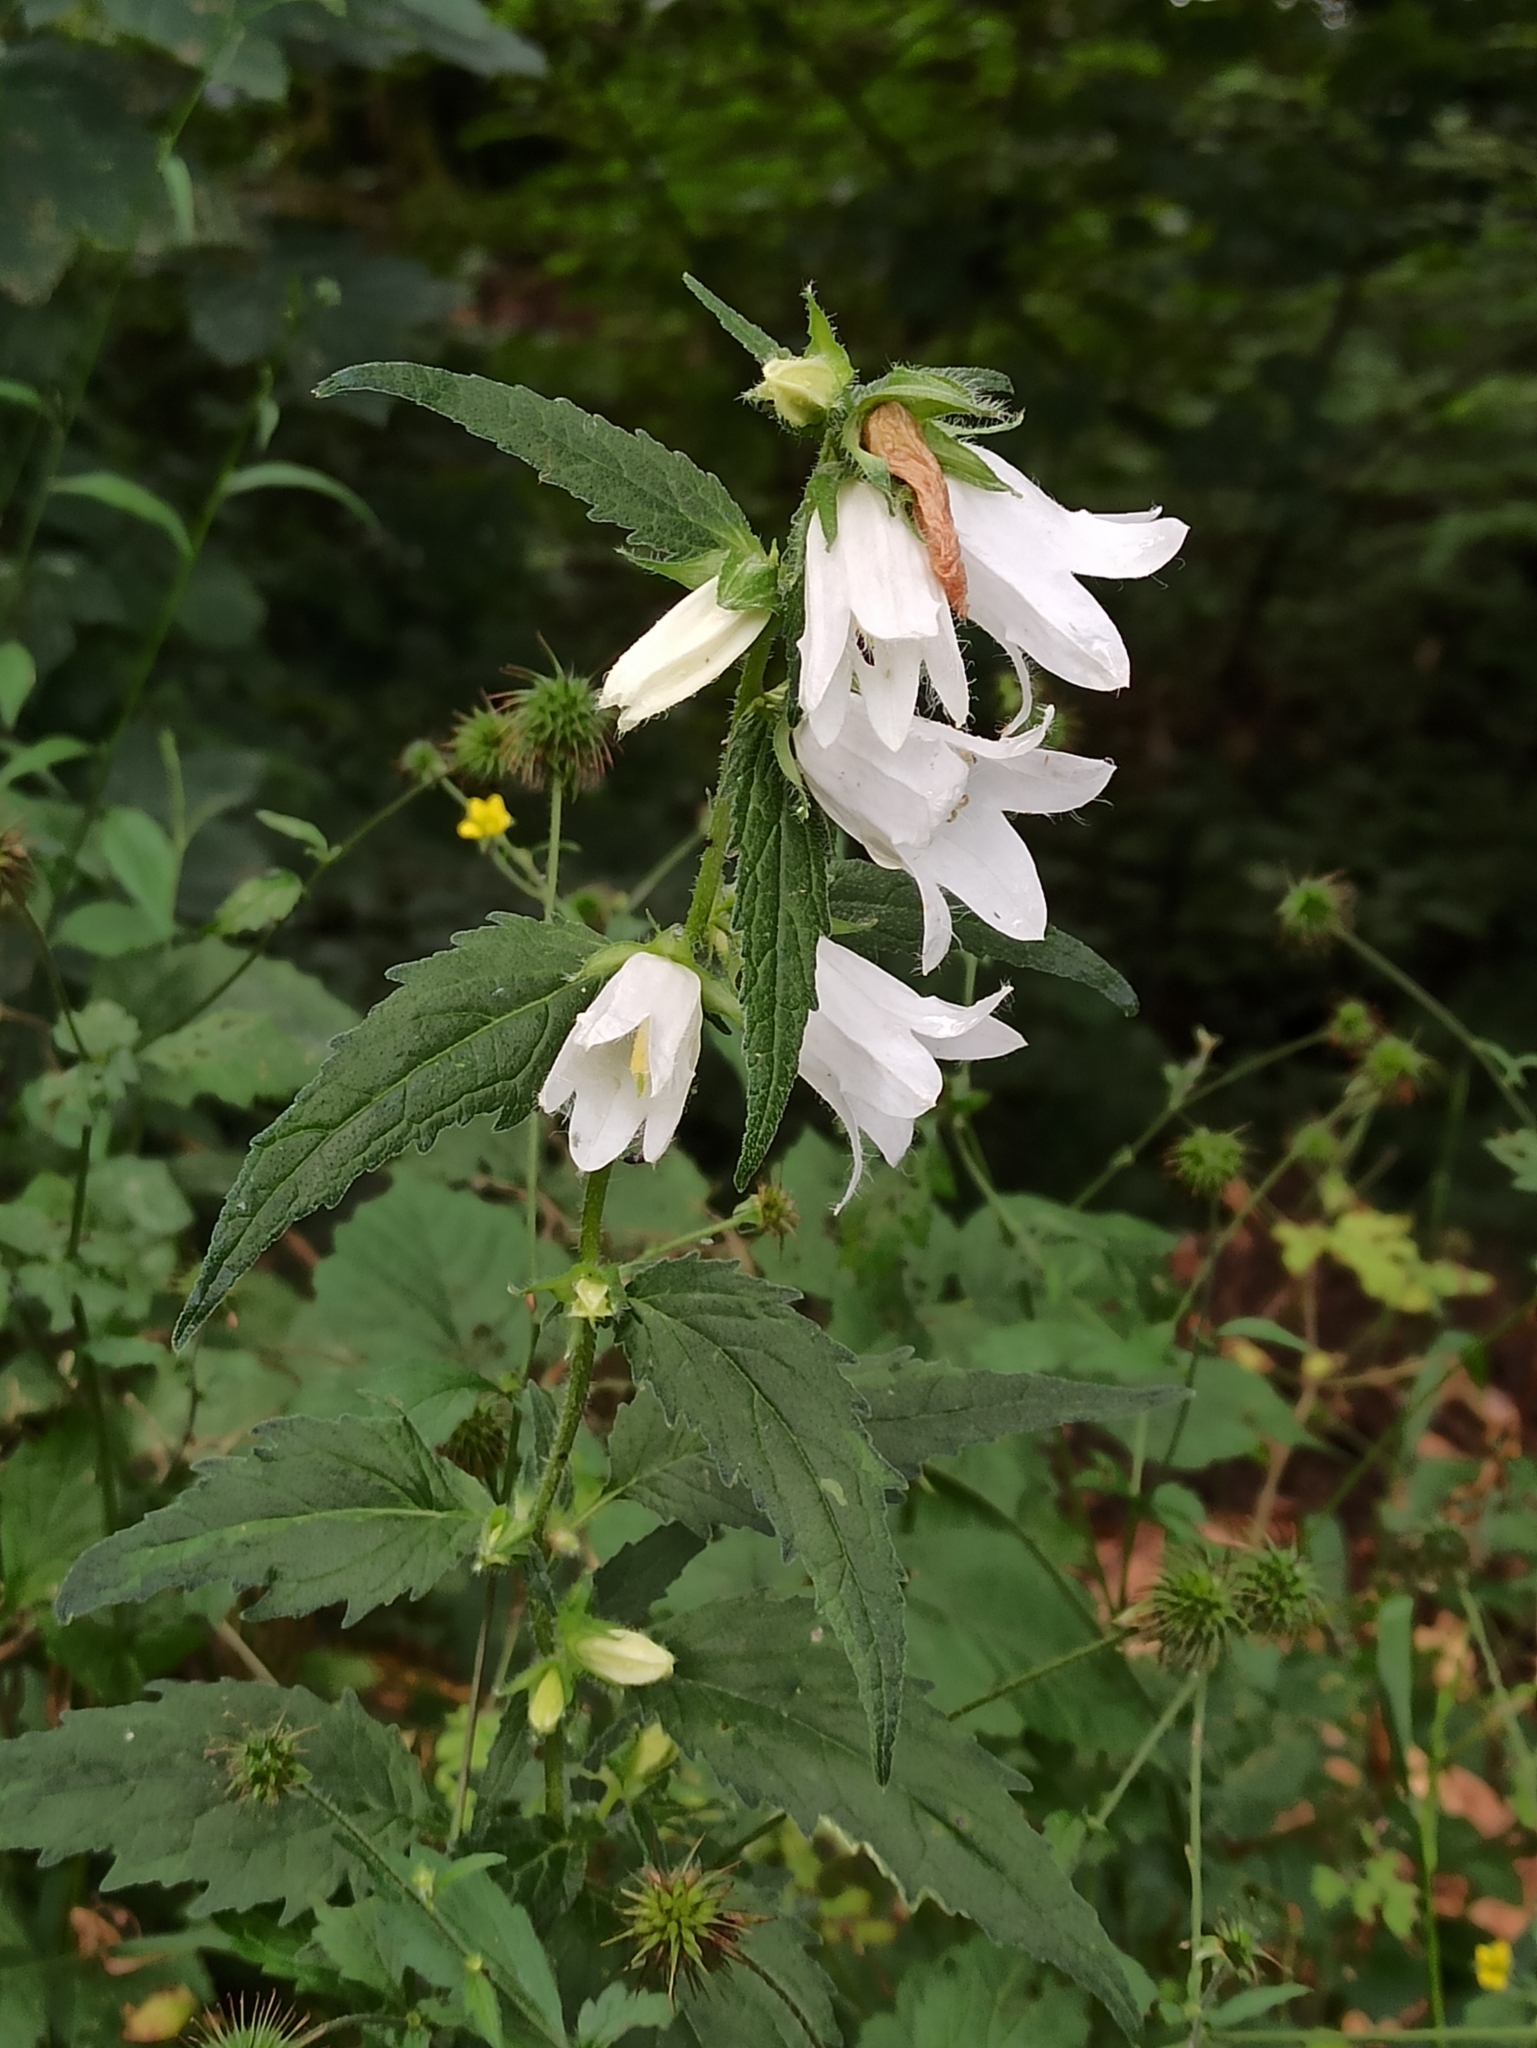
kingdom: Plantae
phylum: Tracheophyta
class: Magnoliopsida
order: Asterales
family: Campanulaceae
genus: Campanula
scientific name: Campanula trachelium
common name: Nettle-leaved bellflower
